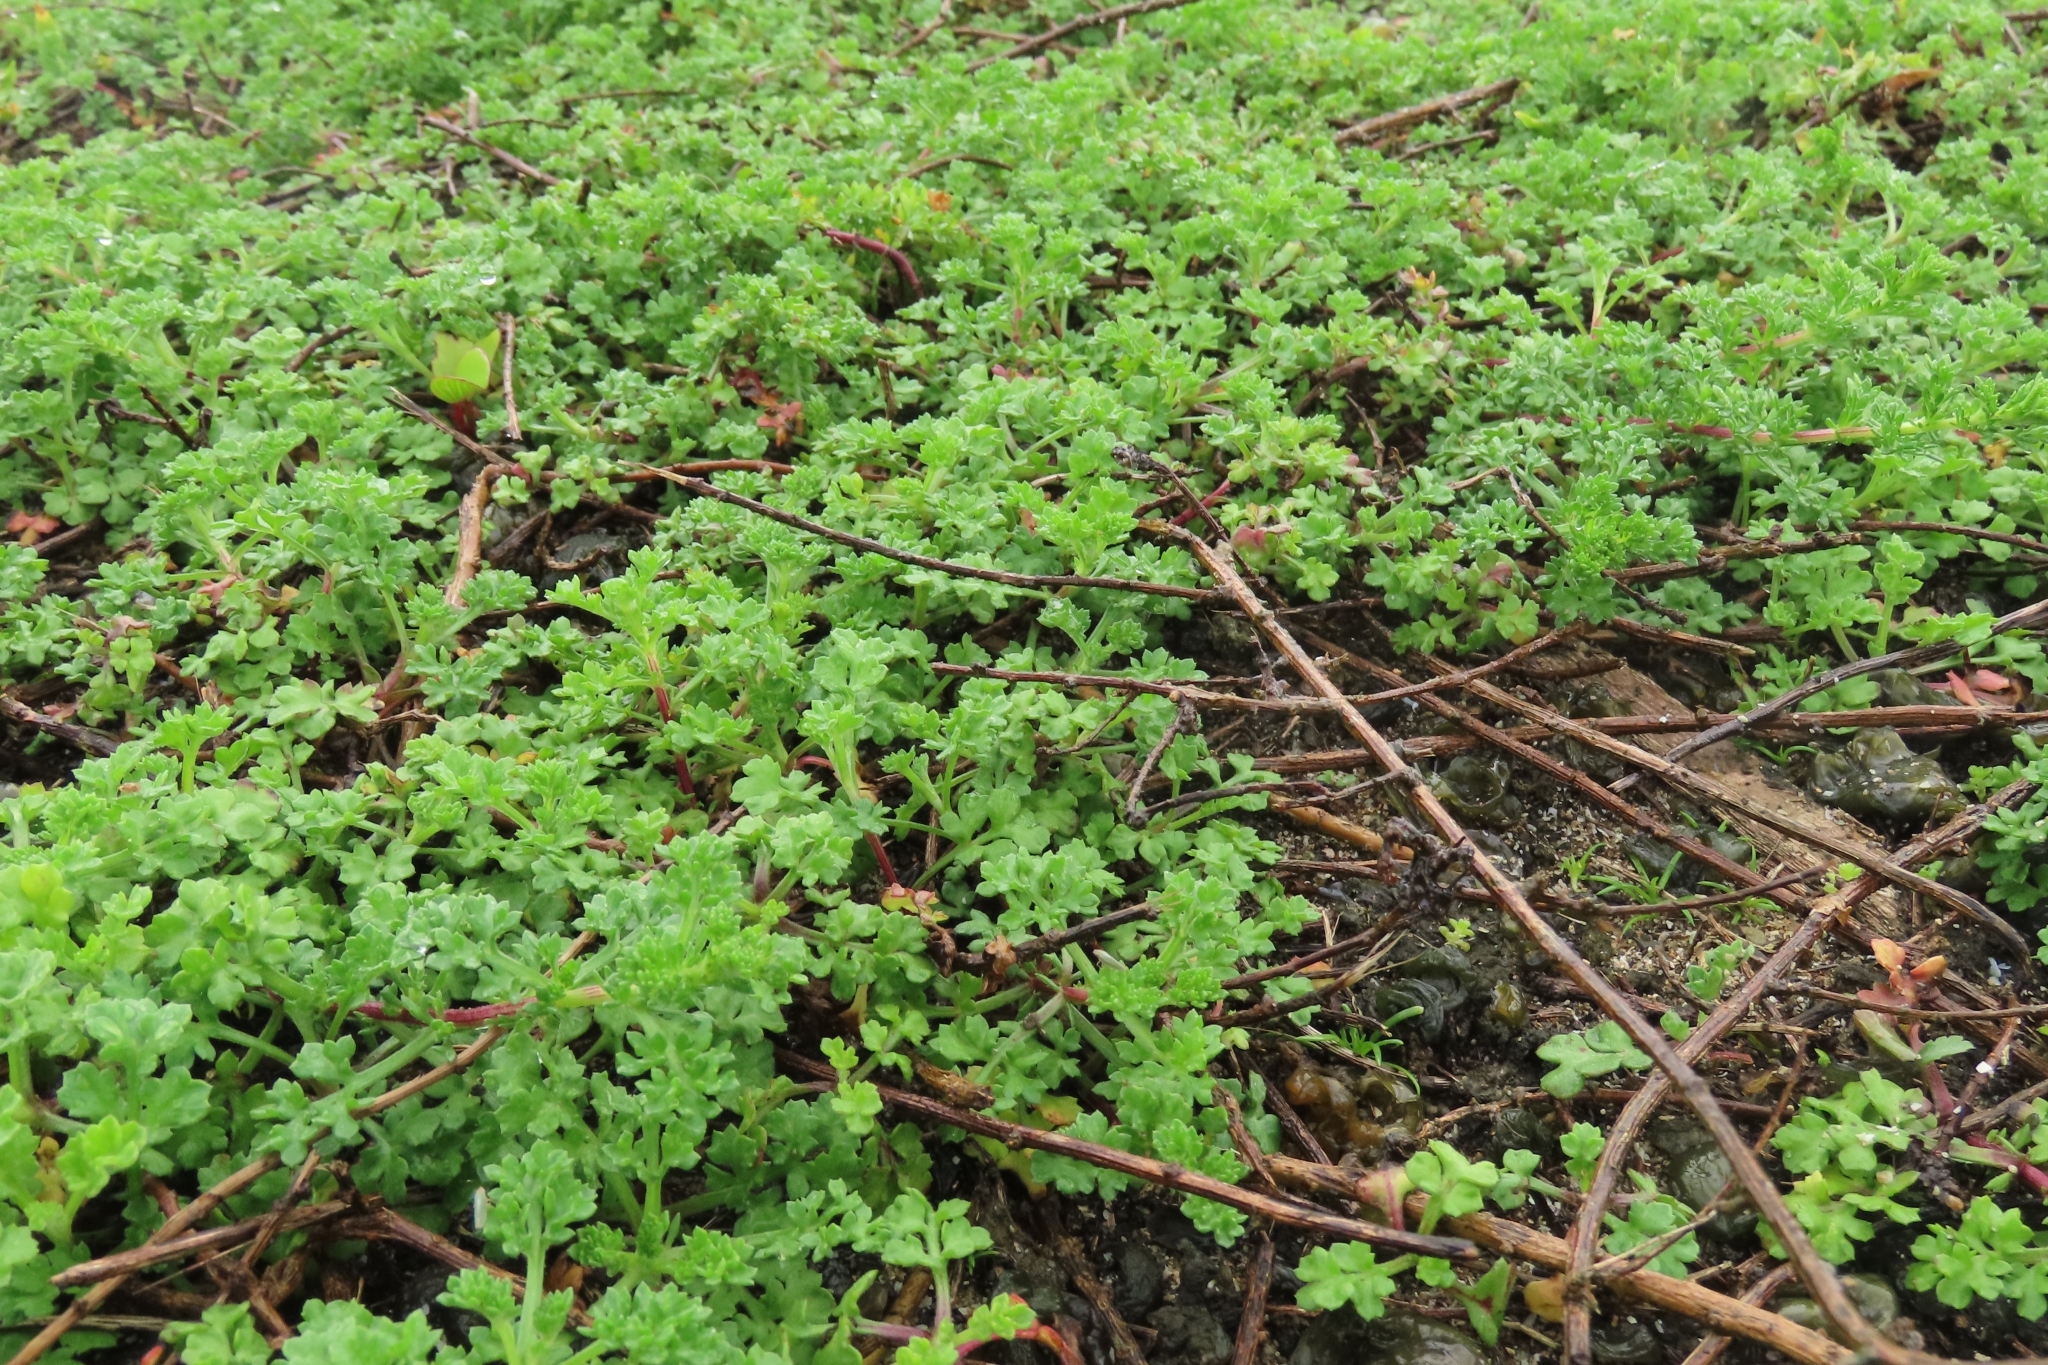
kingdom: Plantae
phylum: Tracheophyta
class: Magnoliopsida
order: Asterales
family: Asteraceae
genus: Artemisia
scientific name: Artemisia capillaris
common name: Yin-chen wormwood
